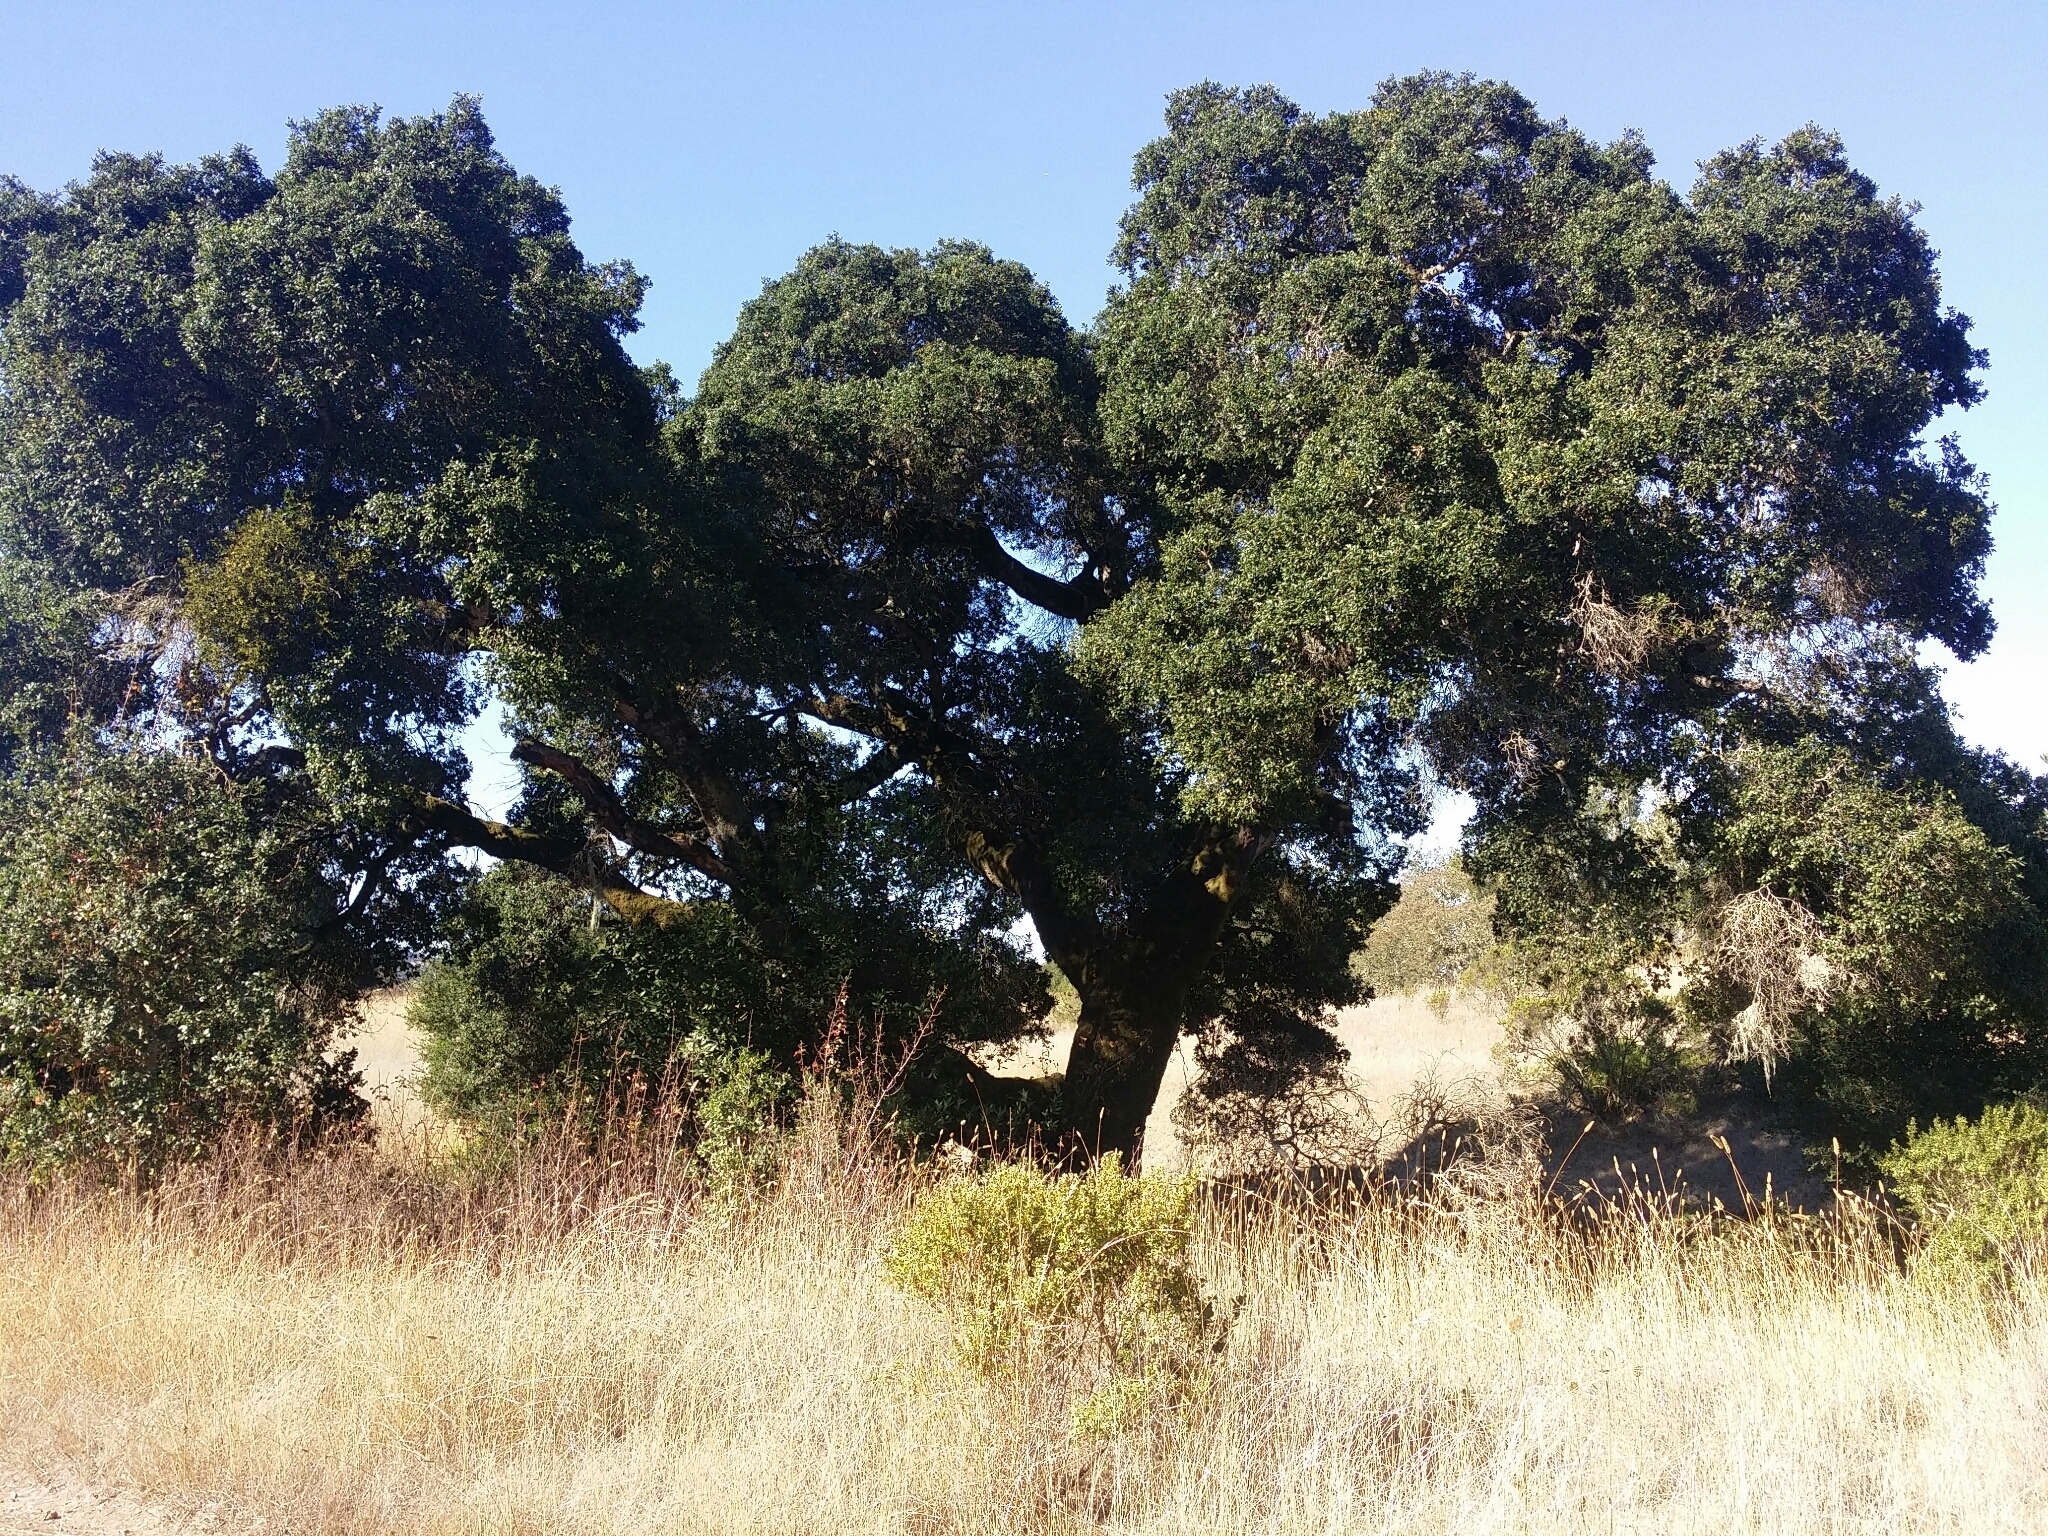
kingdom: Plantae
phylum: Tracheophyta
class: Magnoliopsida
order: Fagales
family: Fagaceae
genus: Quercus
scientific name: Quercus agrifolia
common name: California live oak
